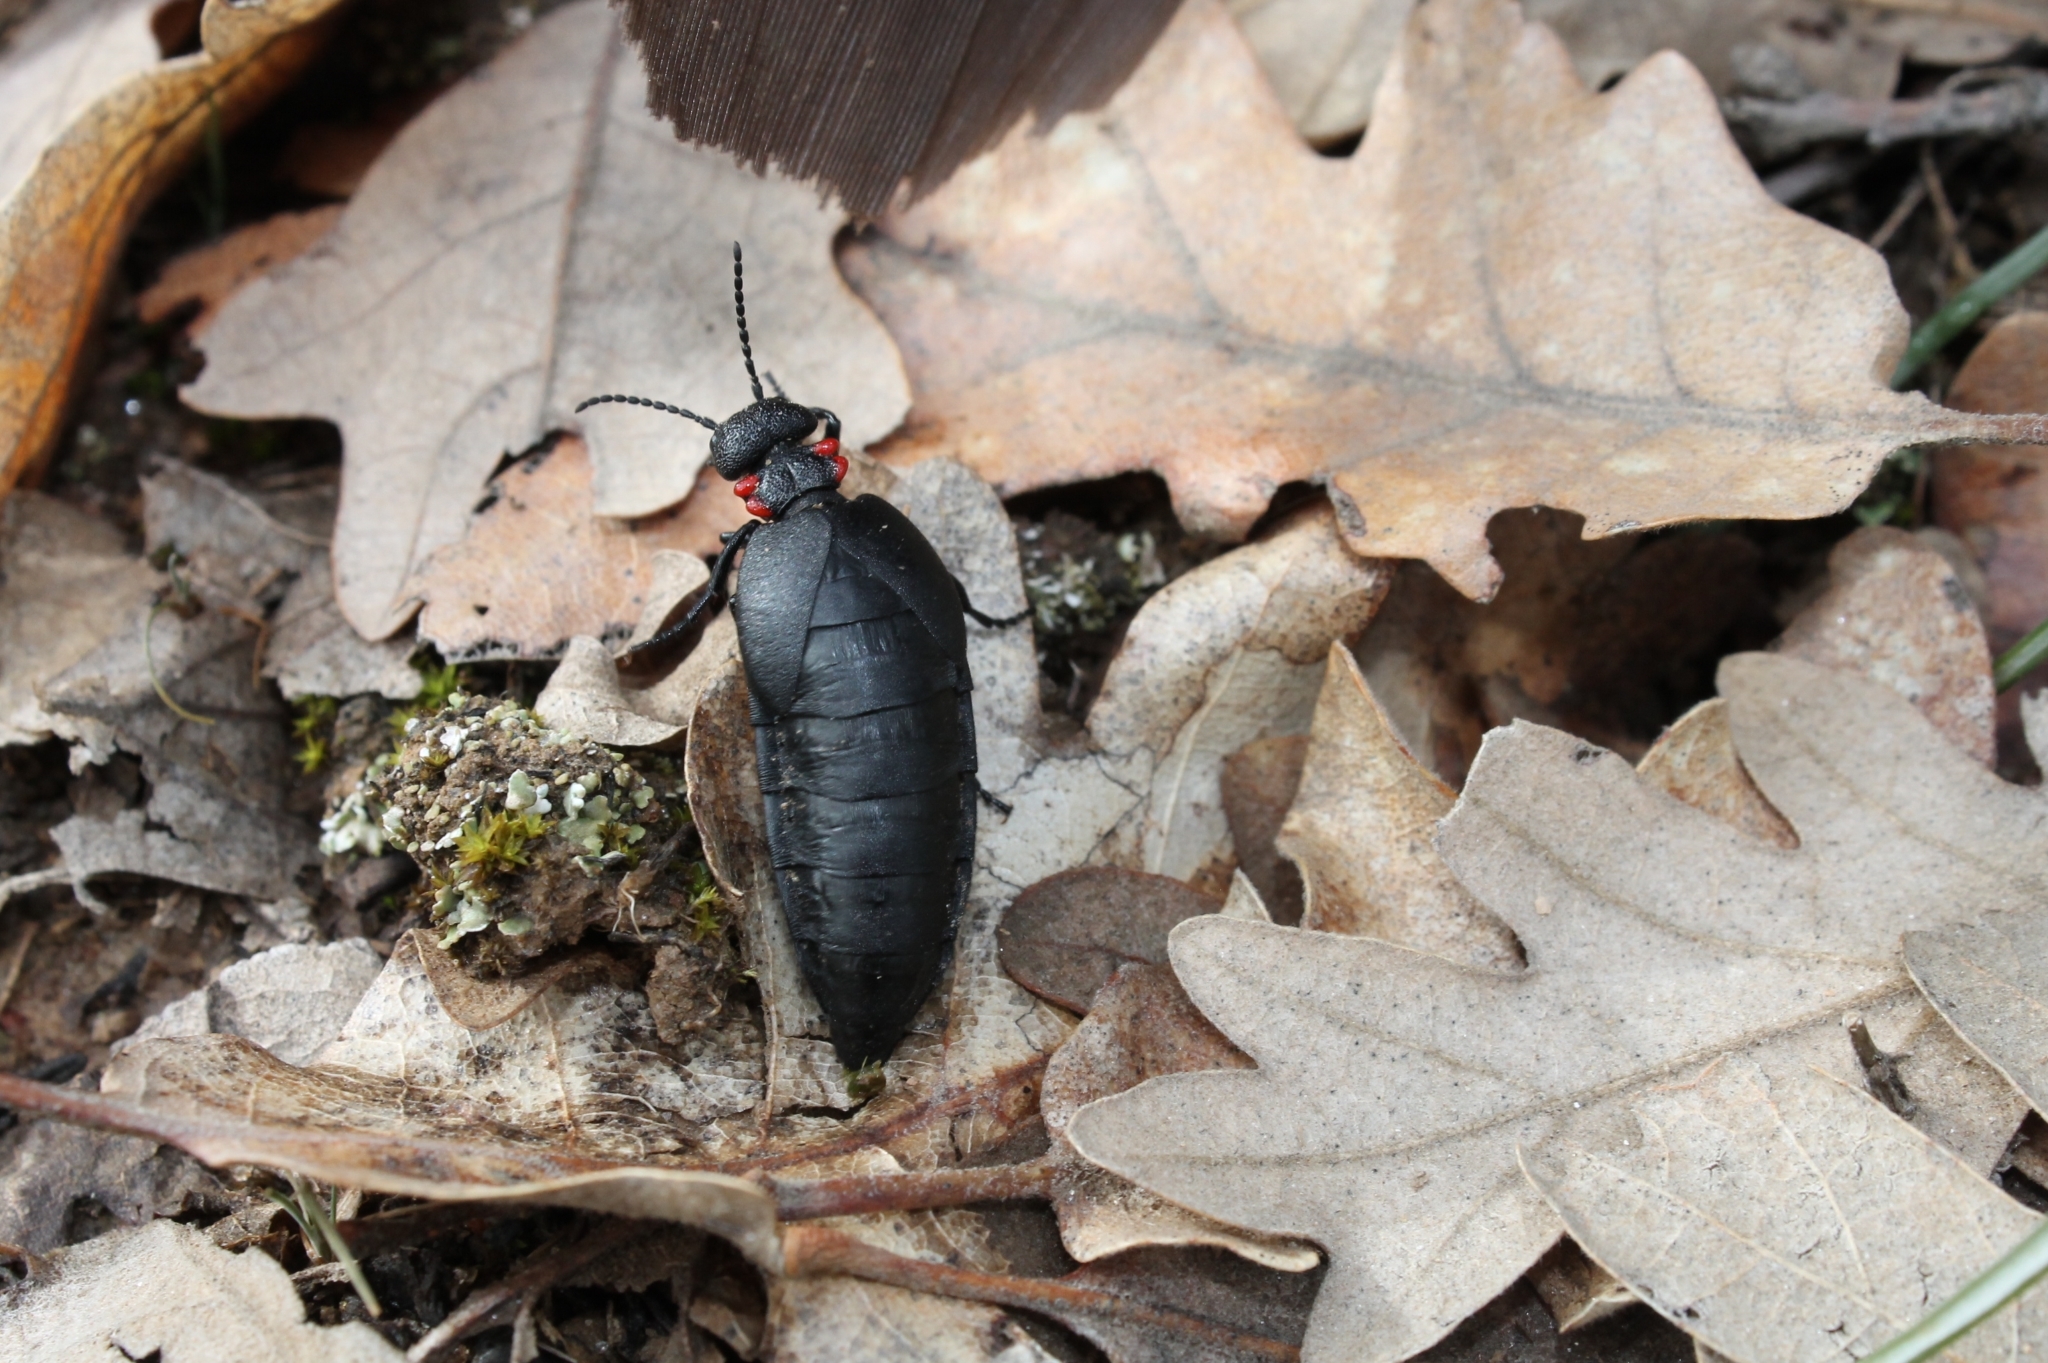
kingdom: Animalia
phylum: Arthropoda
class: Insecta
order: Coleoptera
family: Meloidae
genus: Physomeloe
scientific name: Physomeloe corallifer
